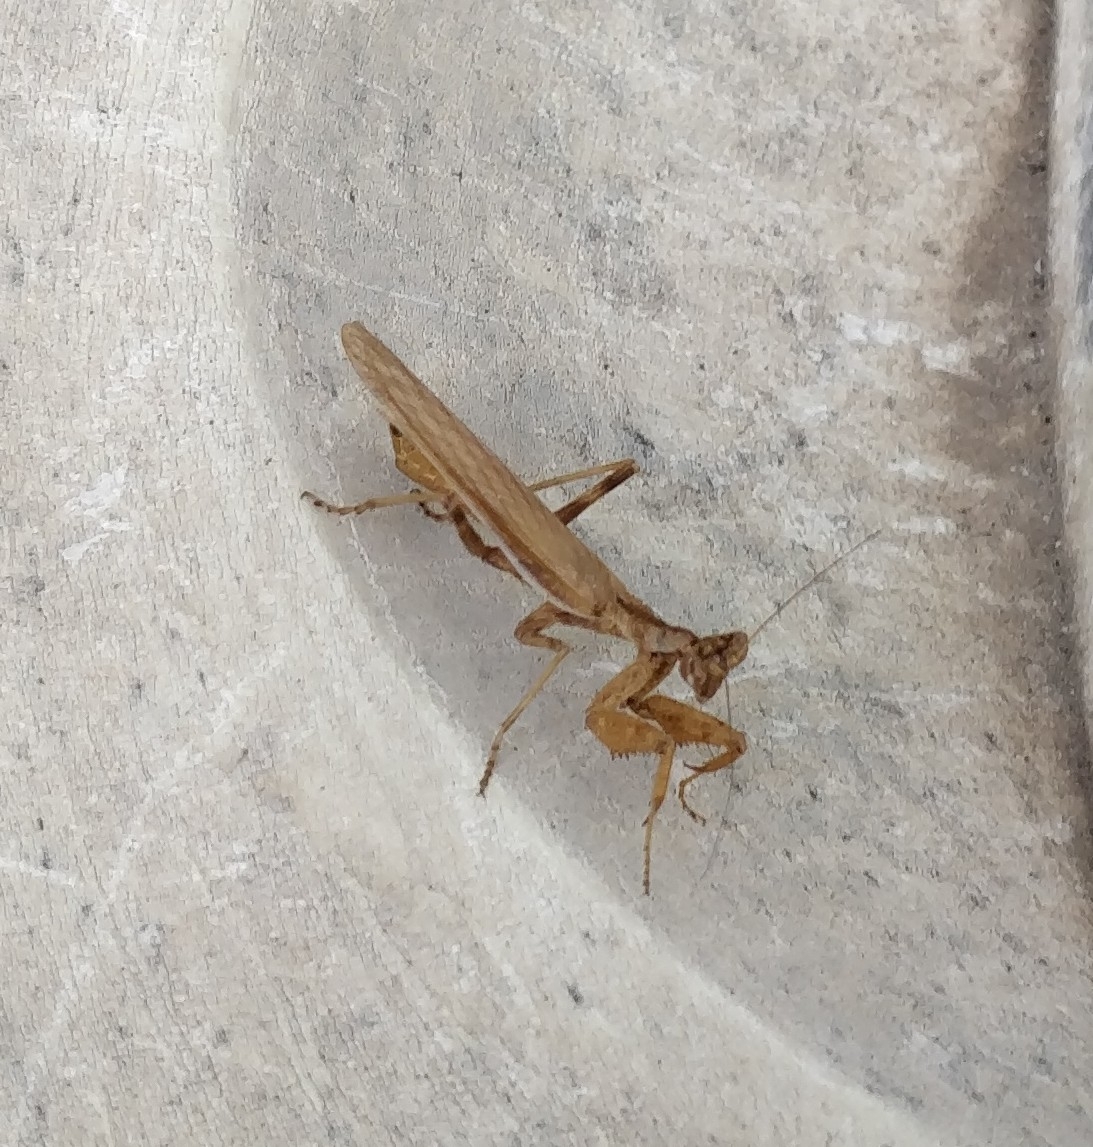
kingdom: Animalia
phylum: Arthropoda
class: Insecta
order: Mantodea
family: Amelidae
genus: Ameles
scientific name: Ameles spallanzania
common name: European dwarf mantis
